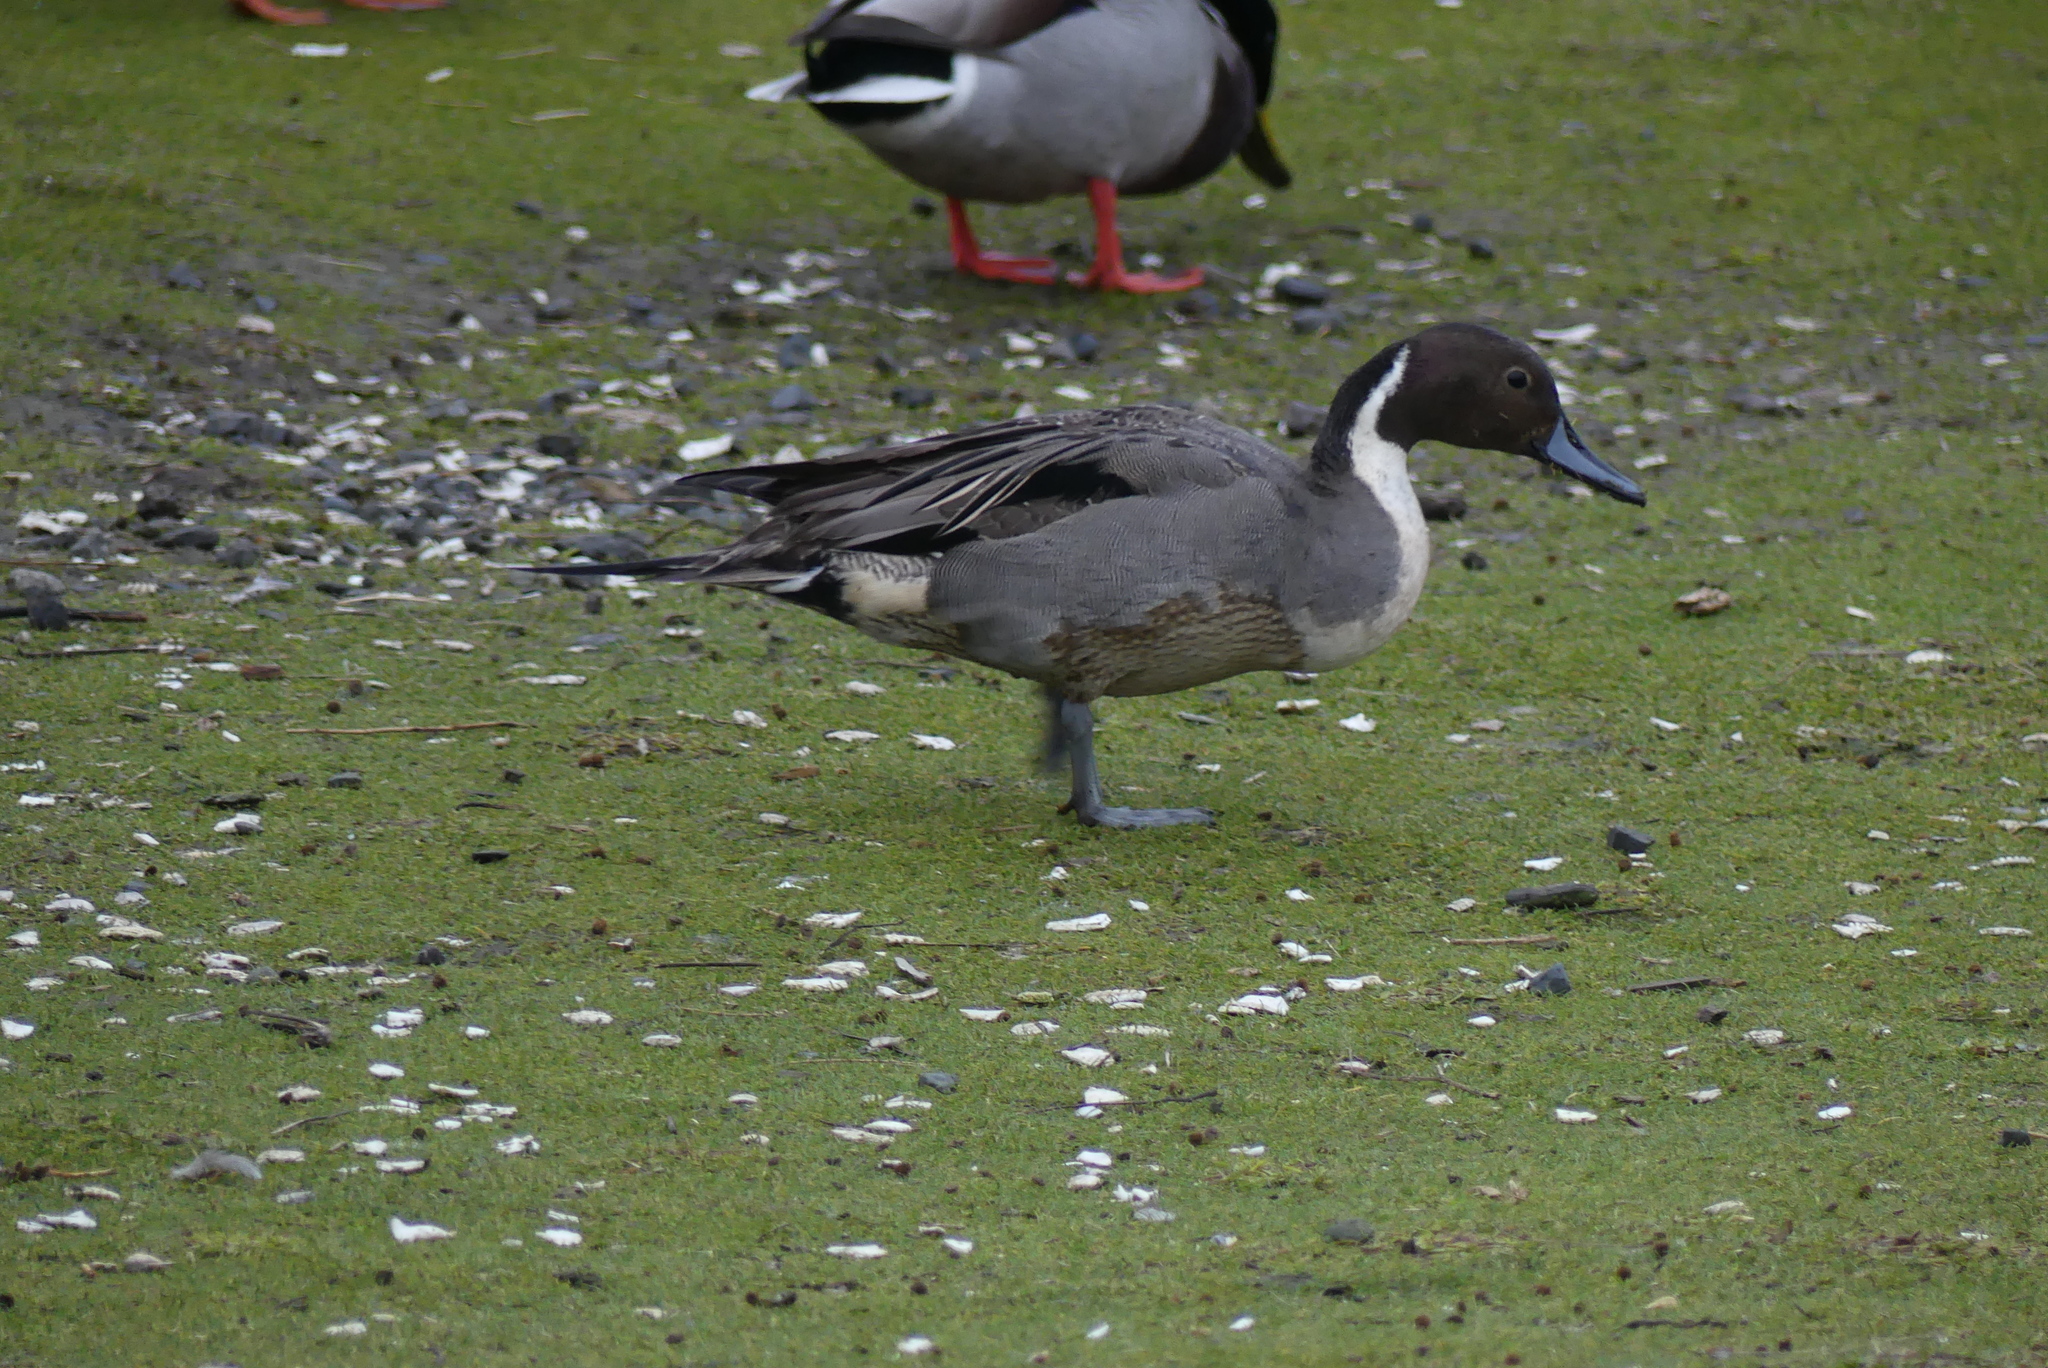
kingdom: Animalia
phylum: Chordata
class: Aves
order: Anseriformes
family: Anatidae
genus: Anas
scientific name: Anas acuta
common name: Northern pintail
